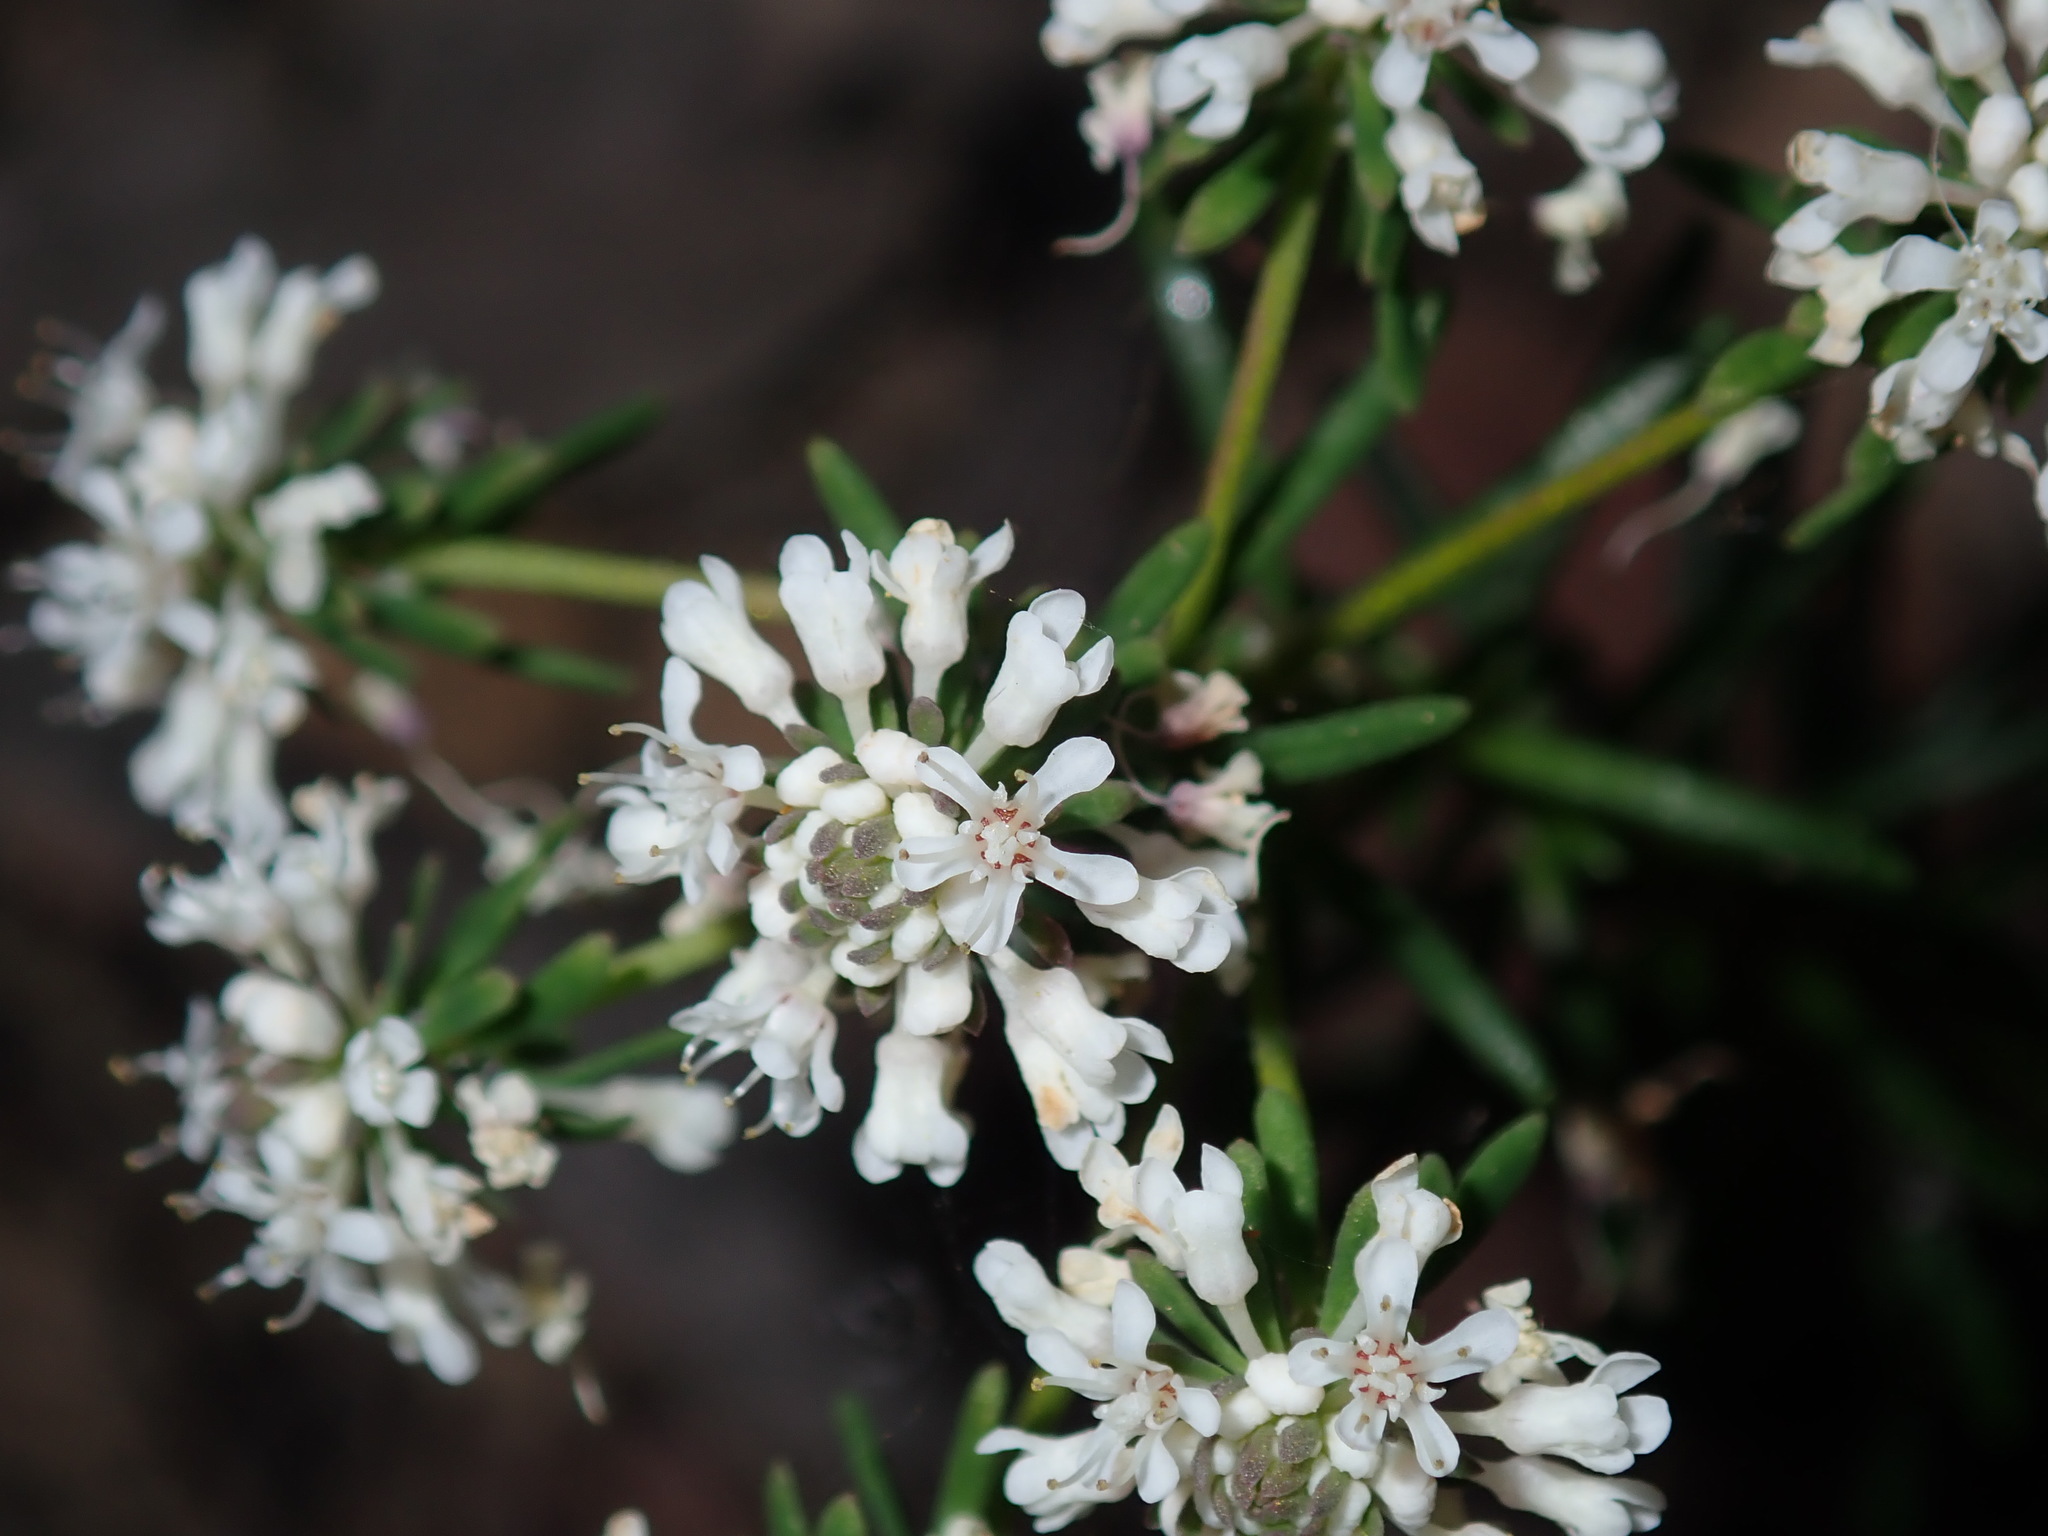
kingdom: Plantae
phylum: Tracheophyta
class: Magnoliopsida
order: Malpighiales
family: Phyllanthaceae
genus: Poranthera
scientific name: Poranthera ericifolia
